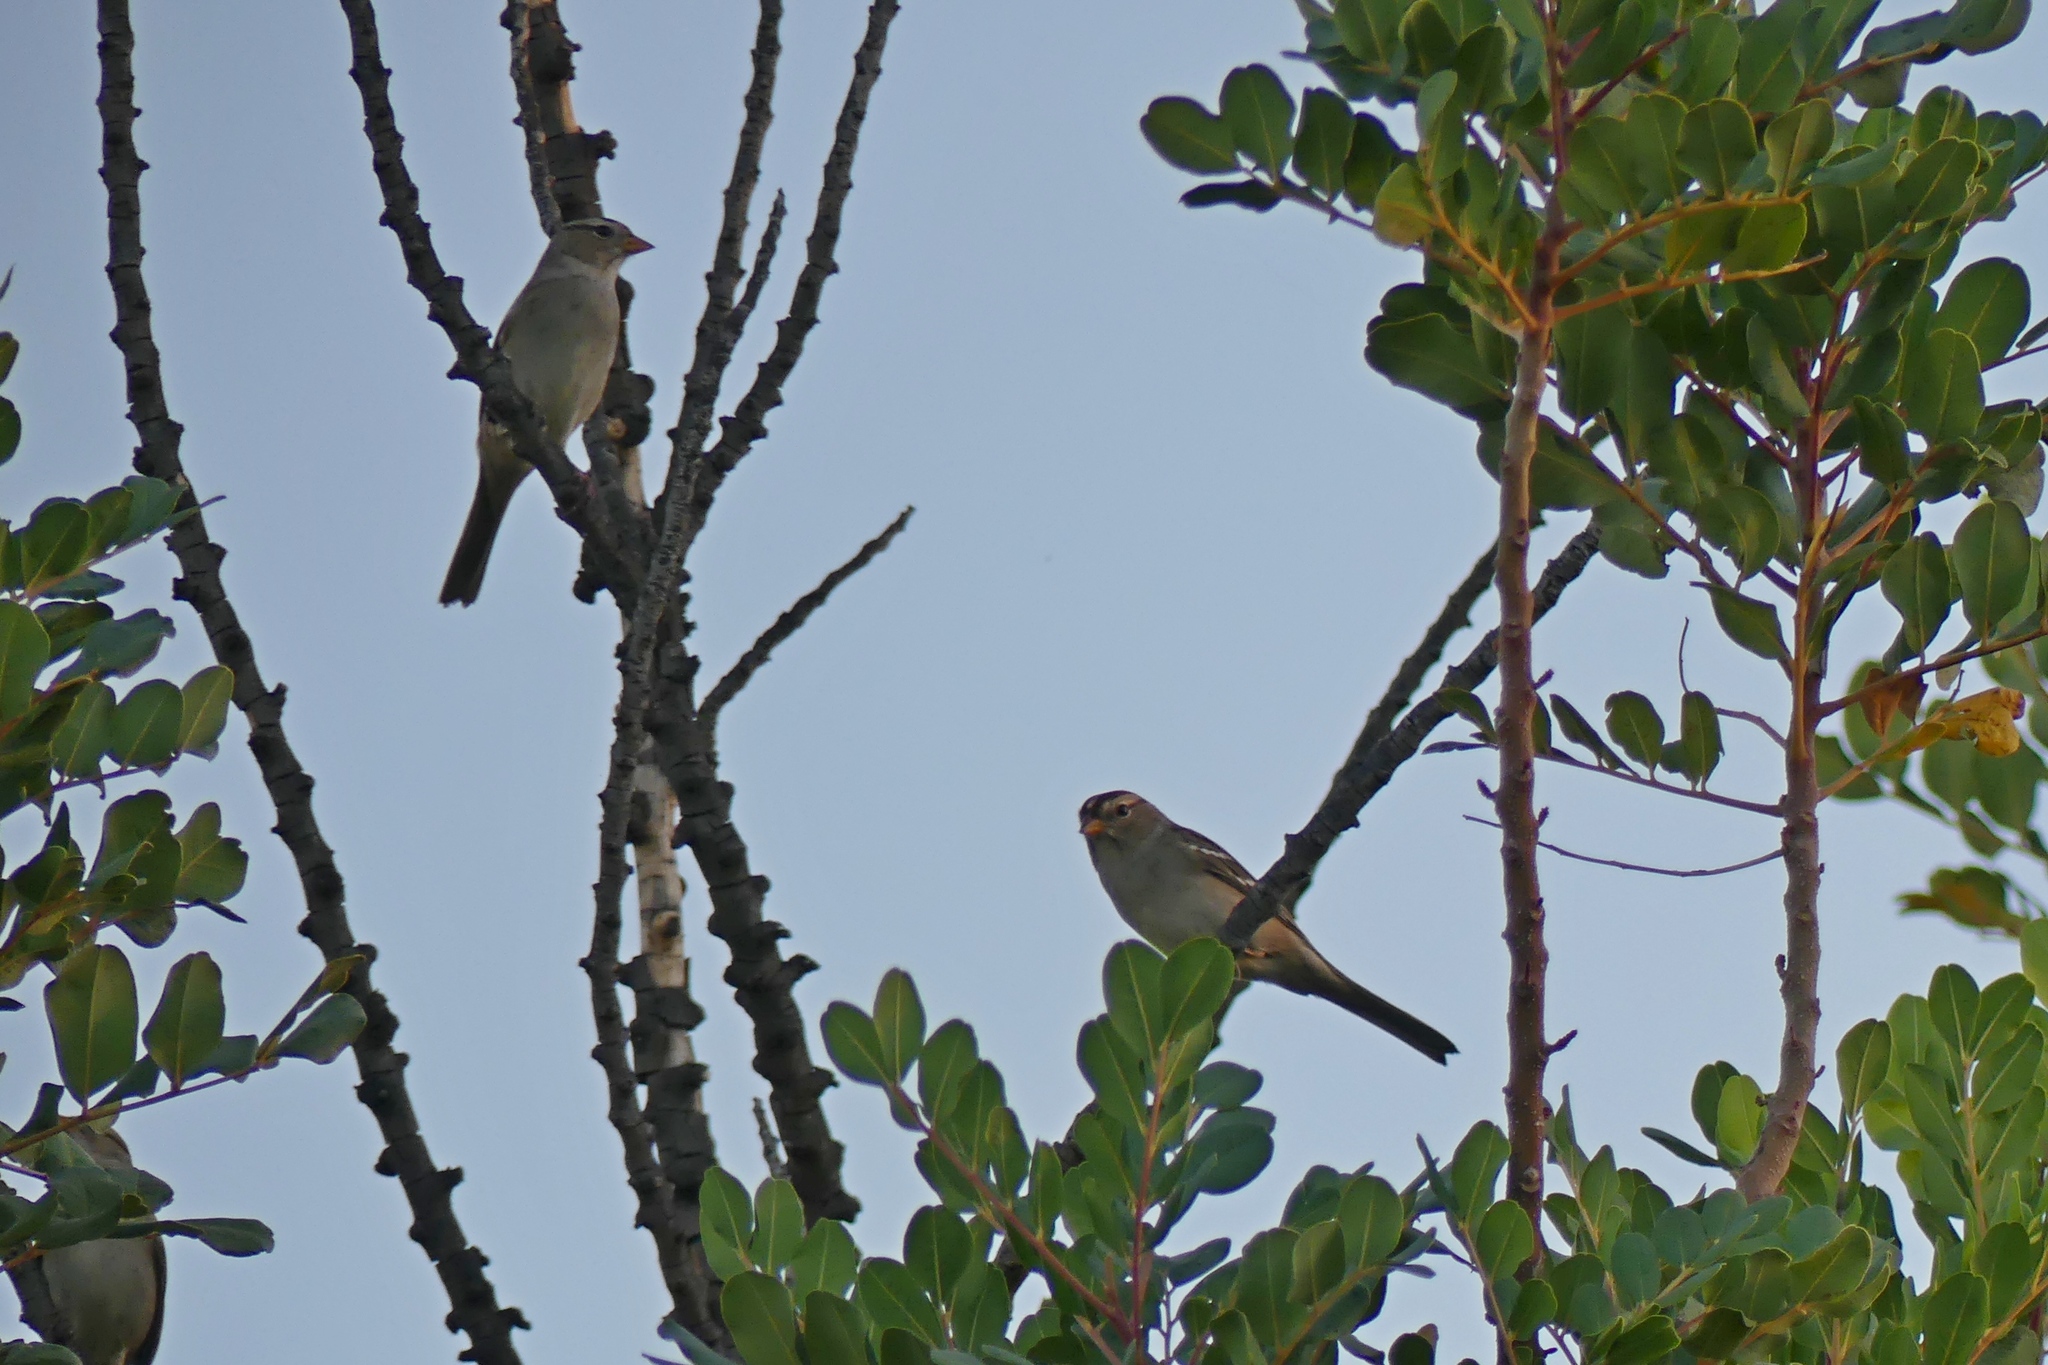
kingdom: Animalia
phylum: Chordata
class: Aves
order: Passeriformes
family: Passerellidae
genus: Zonotrichia
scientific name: Zonotrichia leucophrys
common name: White-crowned sparrow
